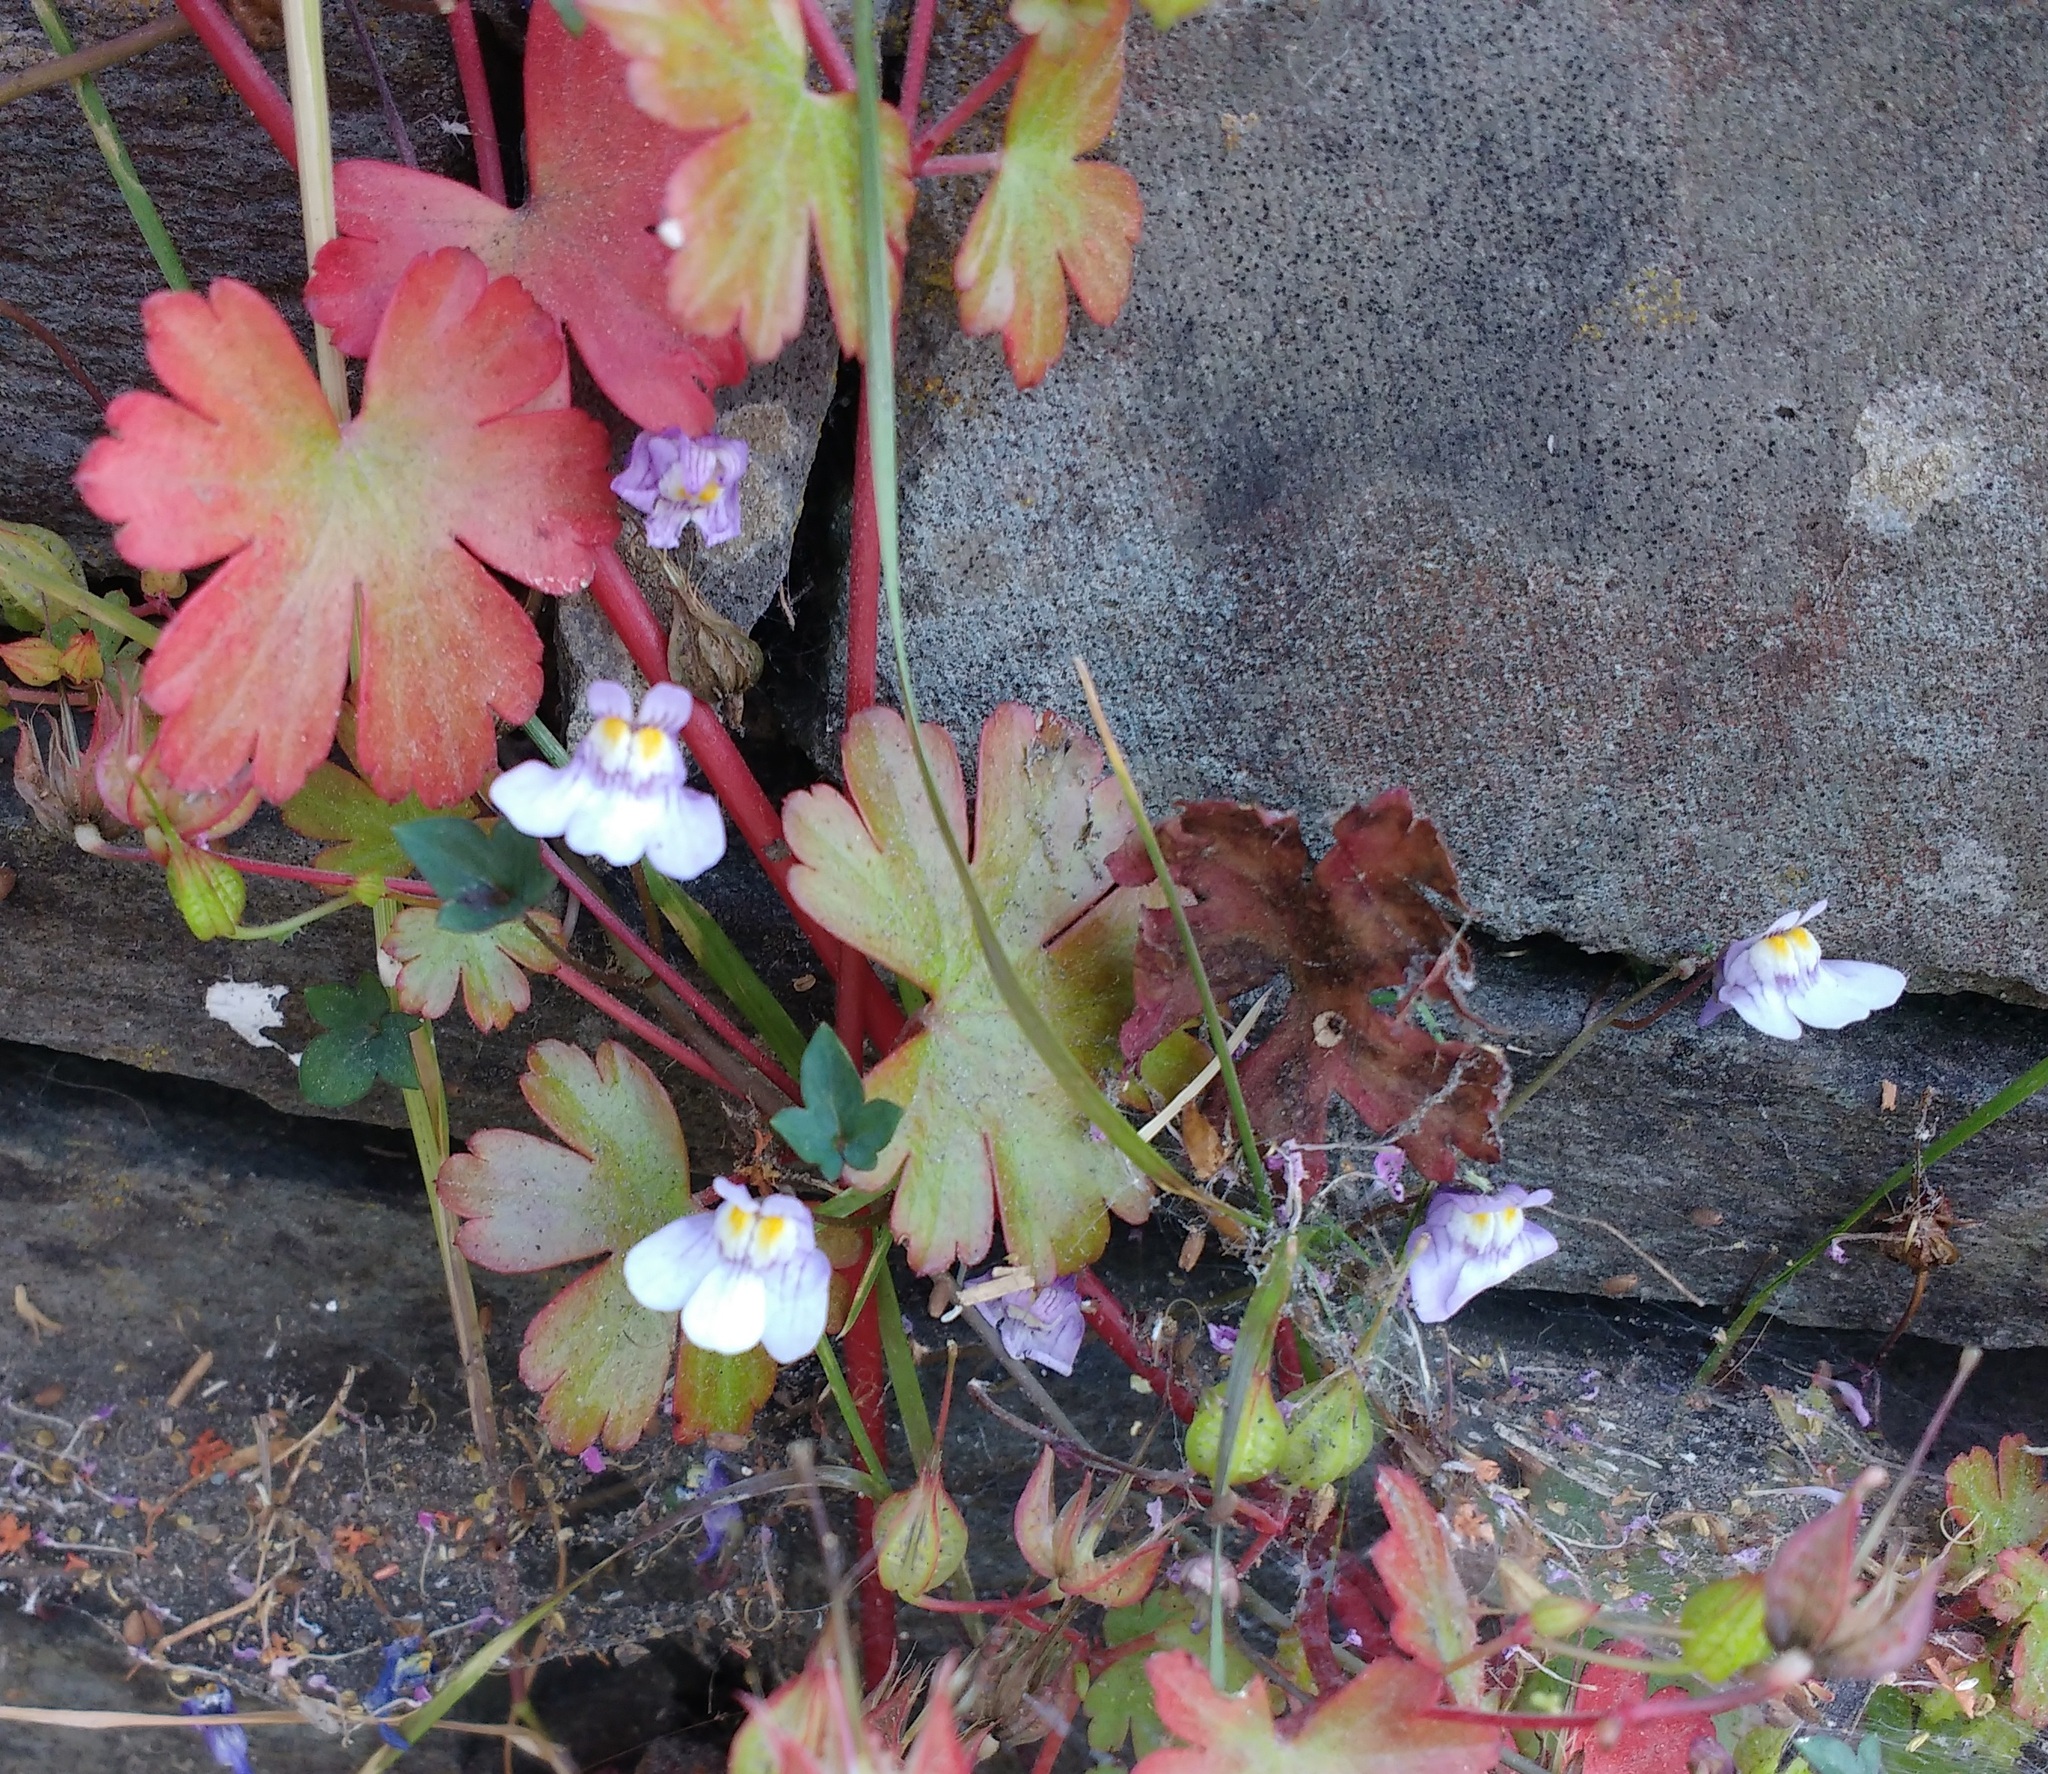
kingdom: Plantae
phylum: Tracheophyta
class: Magnoliopsida
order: Lamiales
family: Plantaginaceae
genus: Cymbalaria
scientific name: Cymbalaria muralis
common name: Ivy-leaved toadflax
